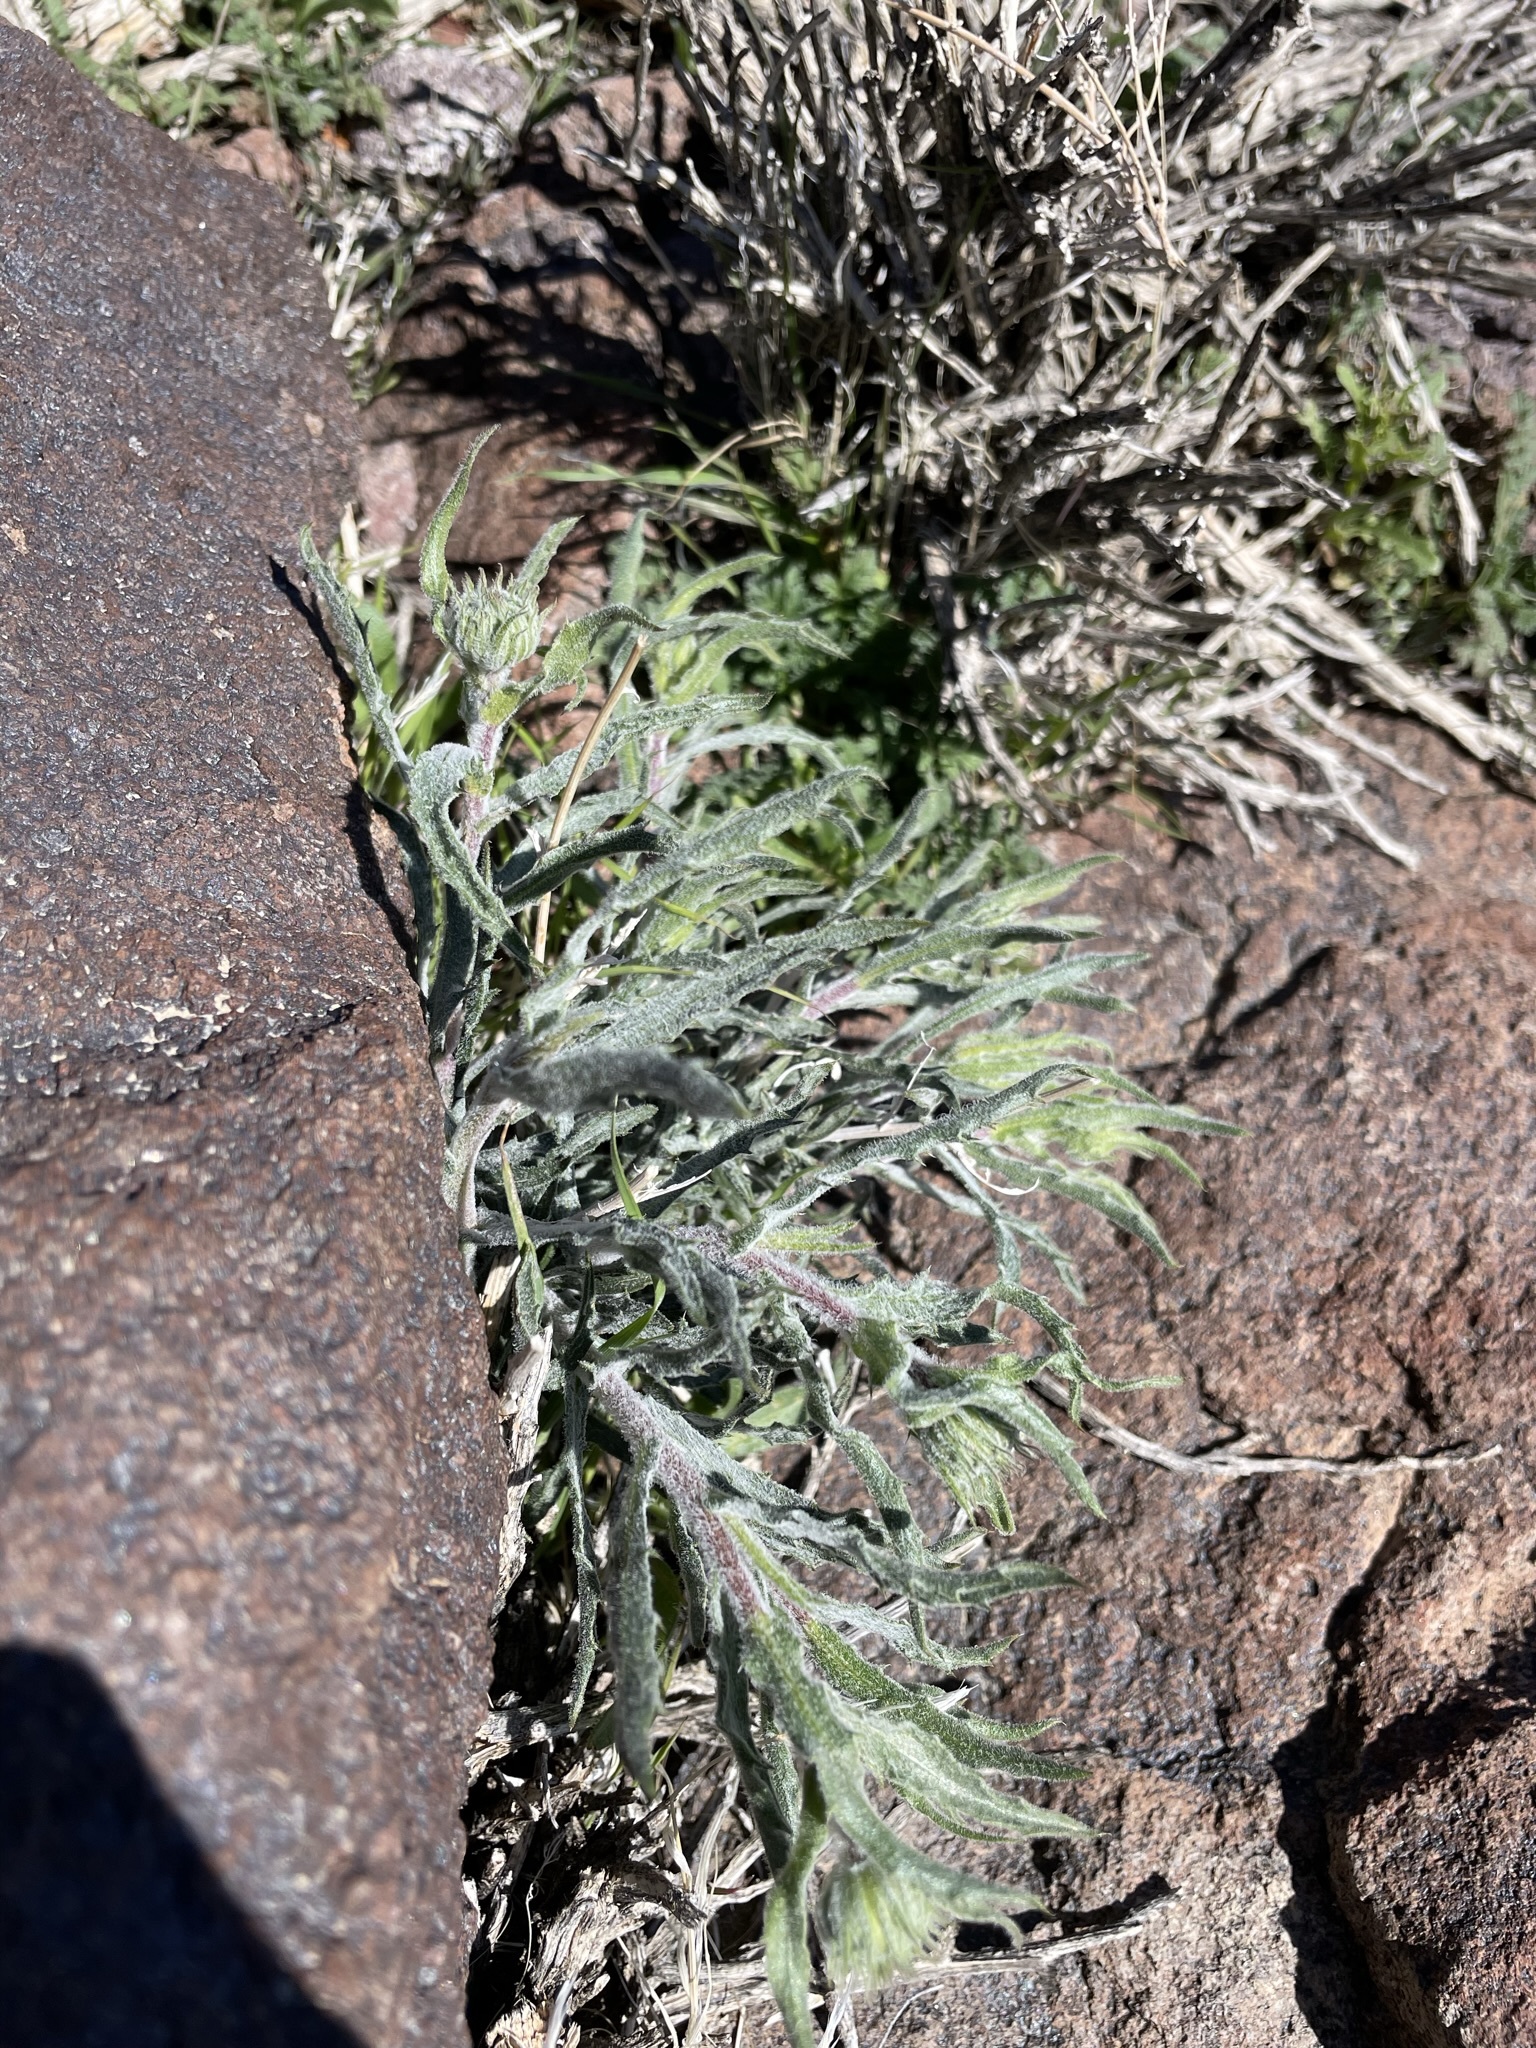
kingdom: Plantae
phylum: Tracheophyta
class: Magnoliopsida
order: Asterales
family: Asteraceae
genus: Xylorhiza
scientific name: Xylorhiza tortifolia
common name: Hurt-leaf woody-aster
